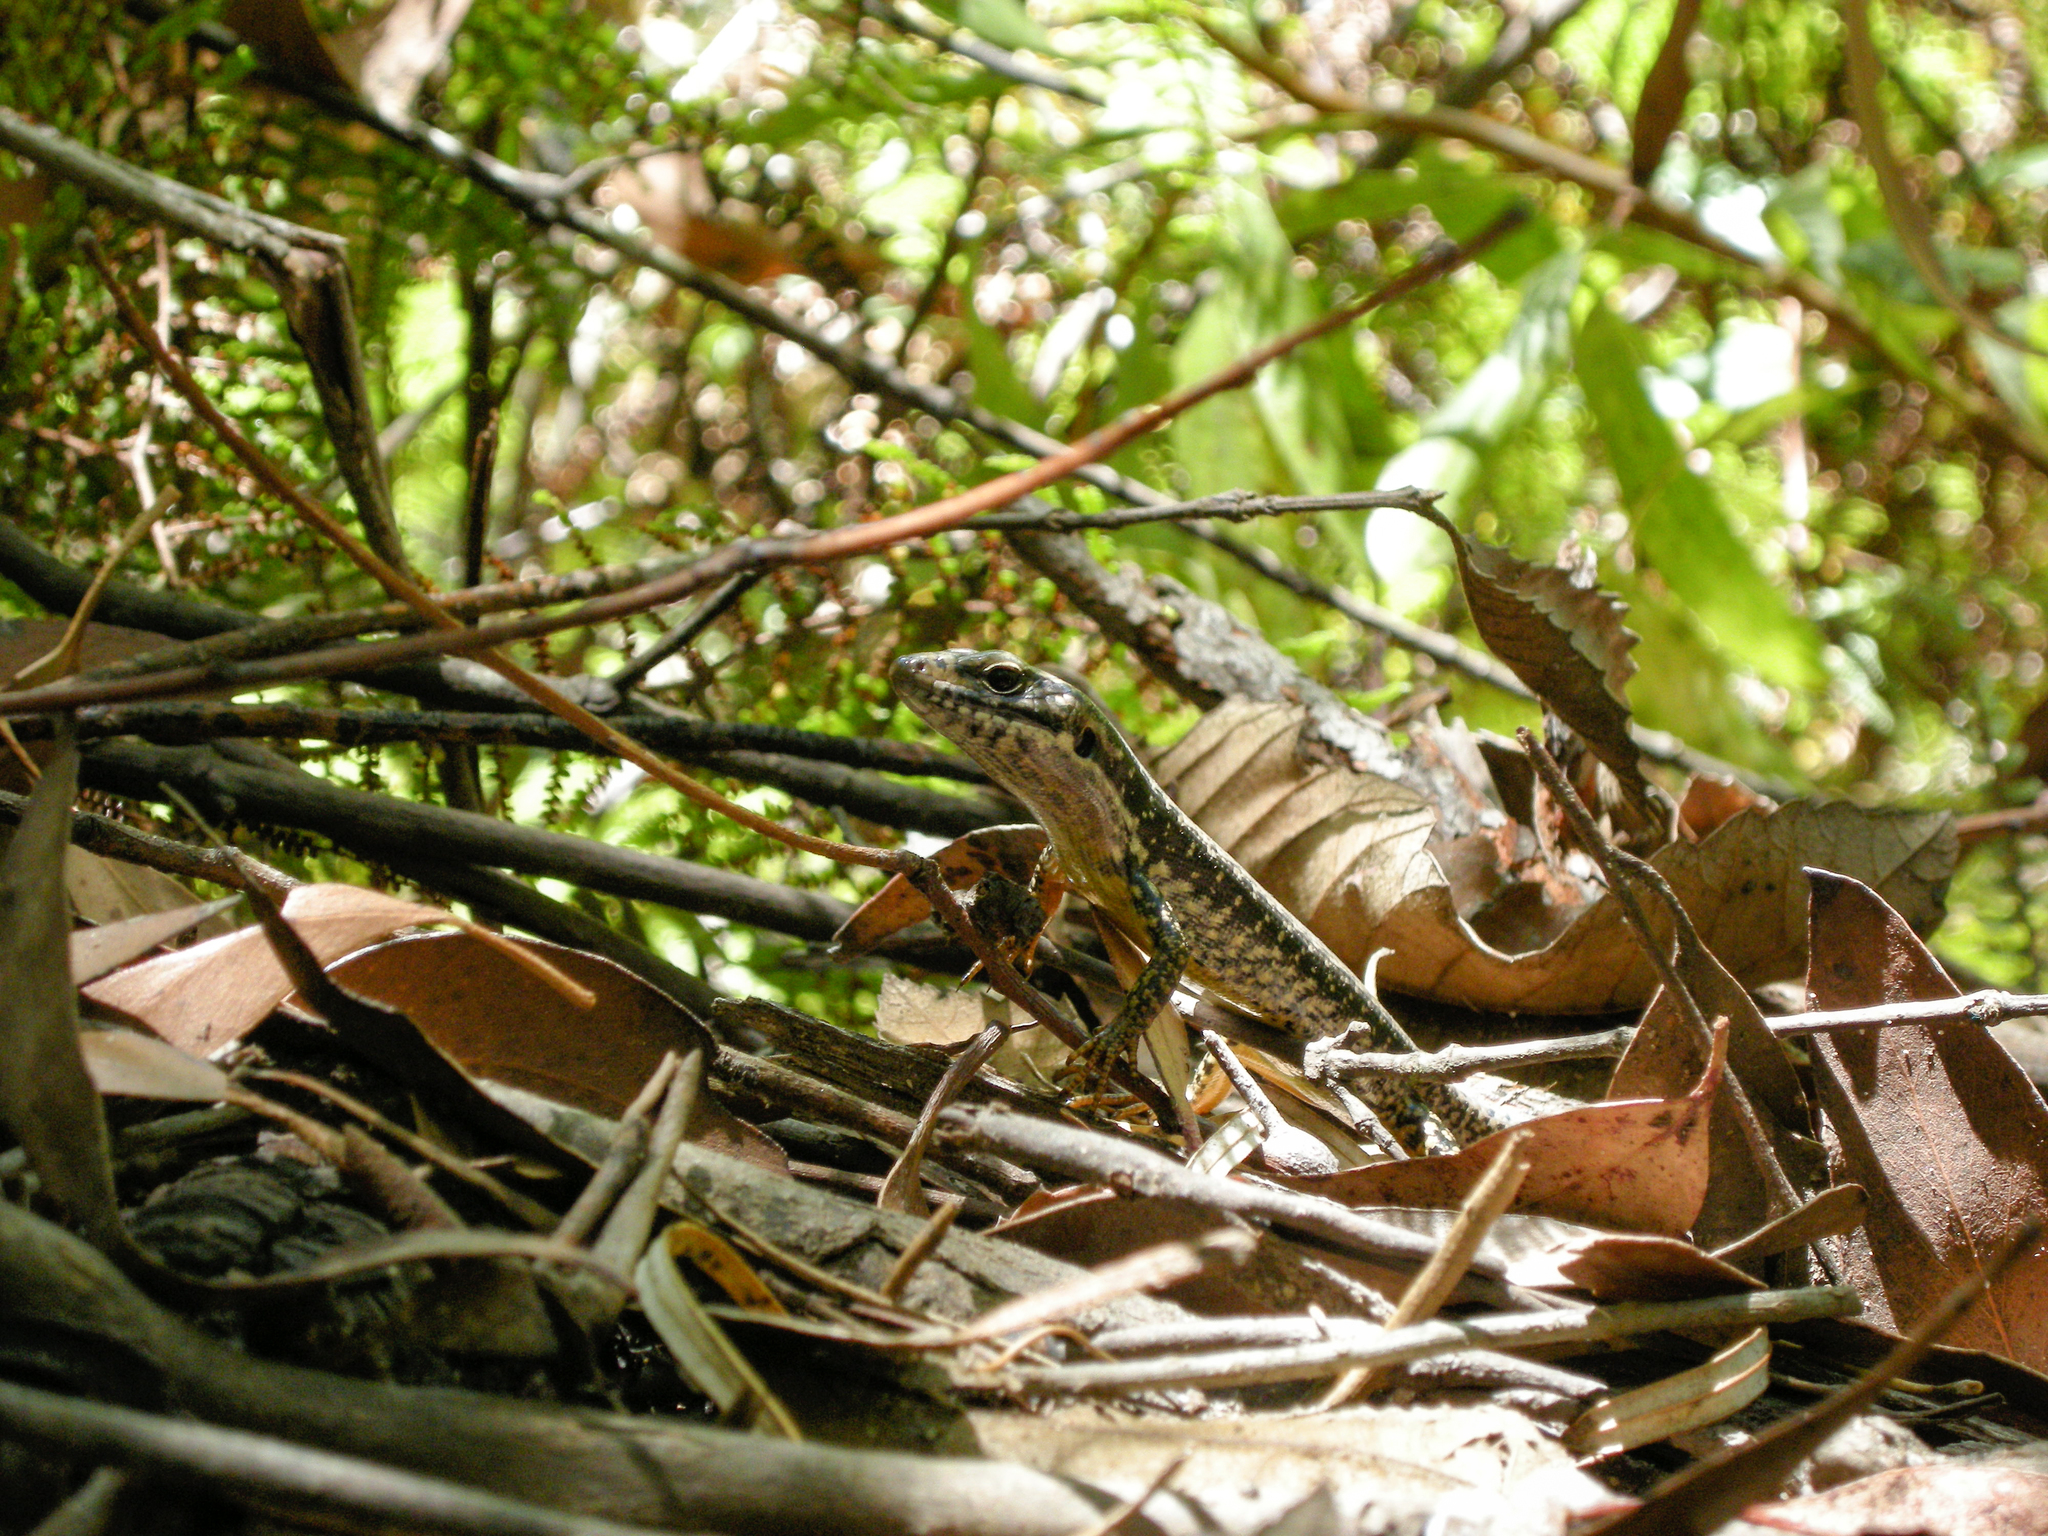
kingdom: Animalia
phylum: Chordata
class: Squamata
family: Scincidae
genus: Eulamprus
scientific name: Eulamprus heatwolei
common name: Warm-temperate water-skink
